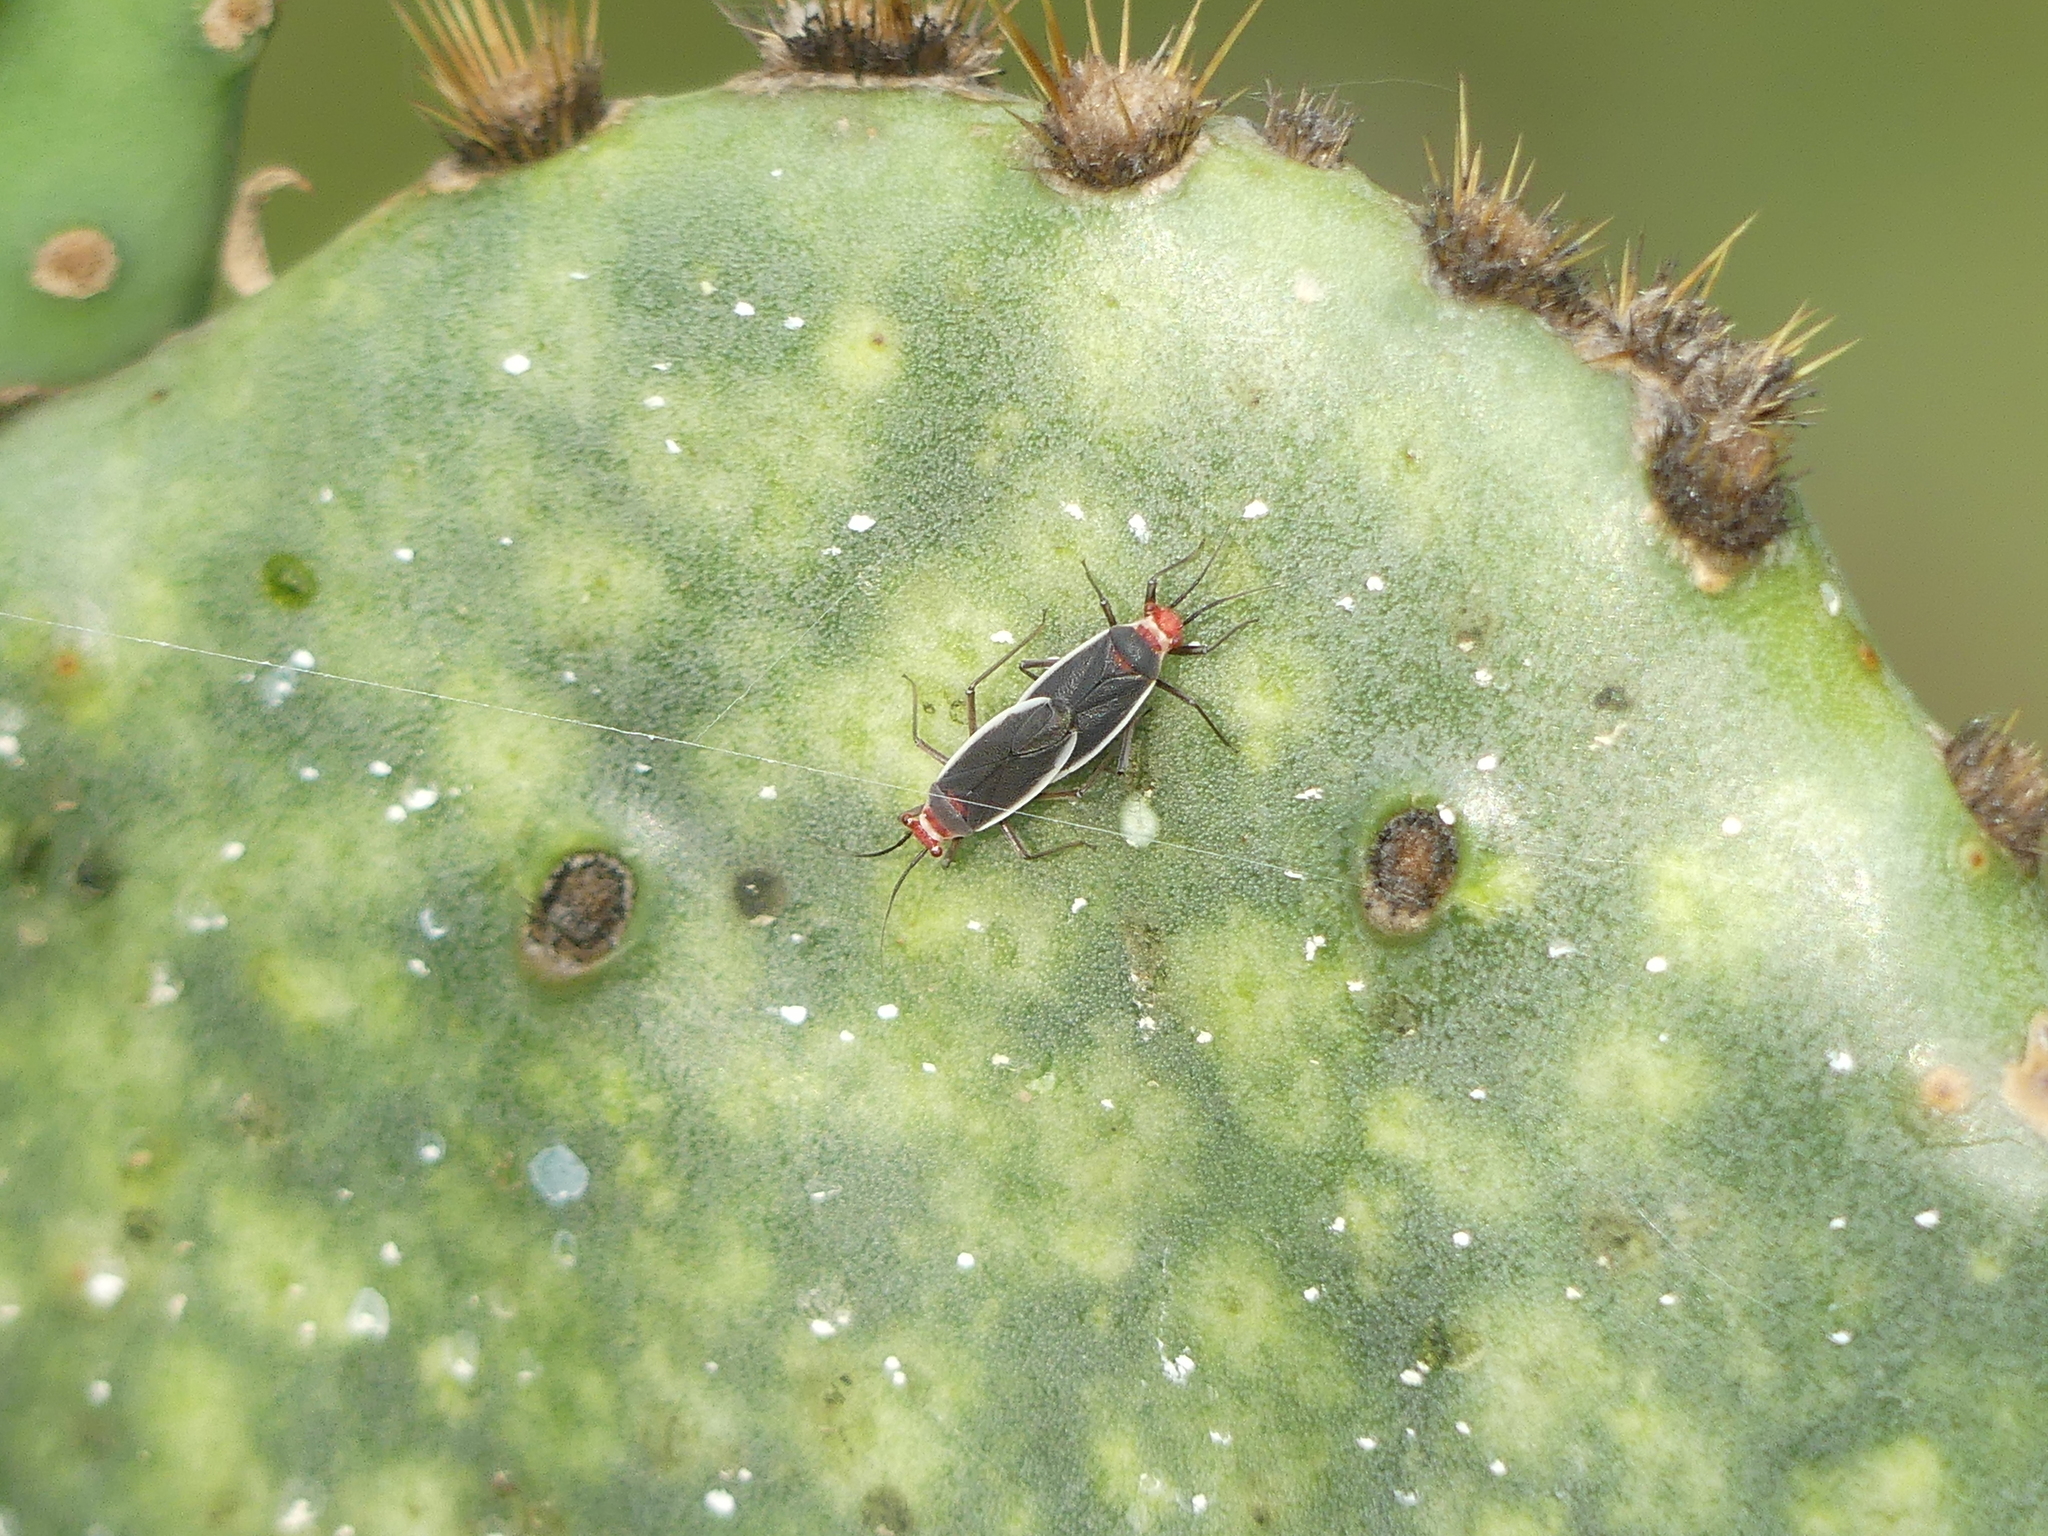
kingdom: Animalia
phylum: Arthropoda
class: Insecta
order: Hemiptera
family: Miridae
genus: Hesperolabops
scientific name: Hesperolabops gelastops
